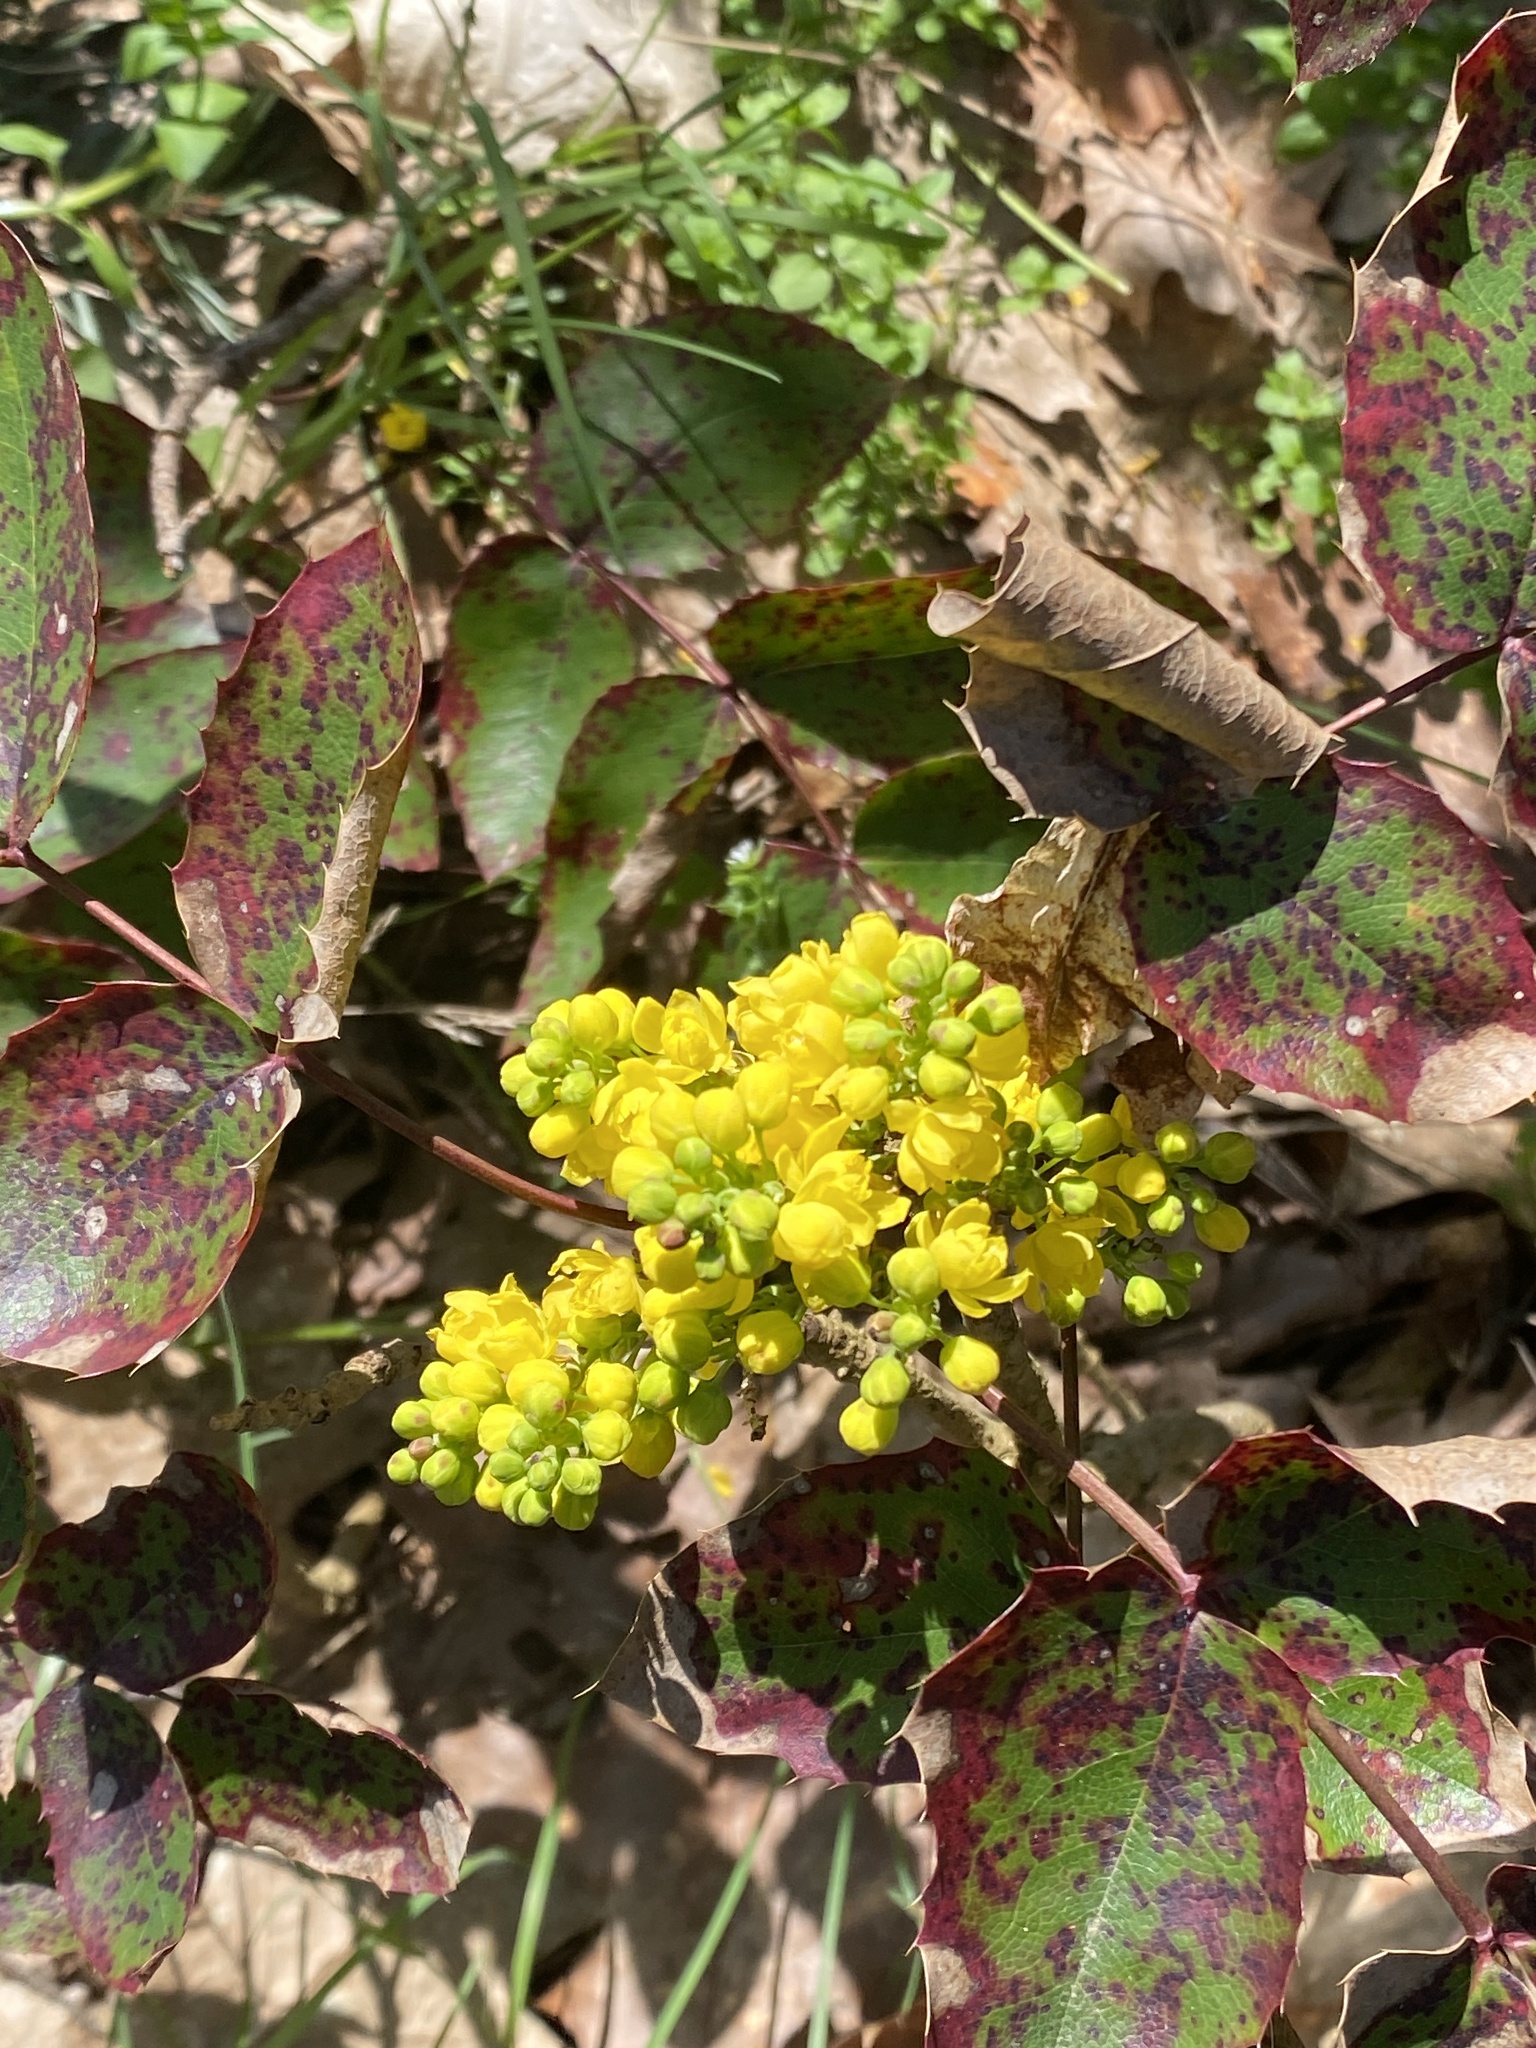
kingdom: Plantae
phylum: Tracheophyta
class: Magnoliopsida
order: Ranunculales
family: Berberidaceae
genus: Mahonia
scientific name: Mahonia aquifolium
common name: Oregon-grape
